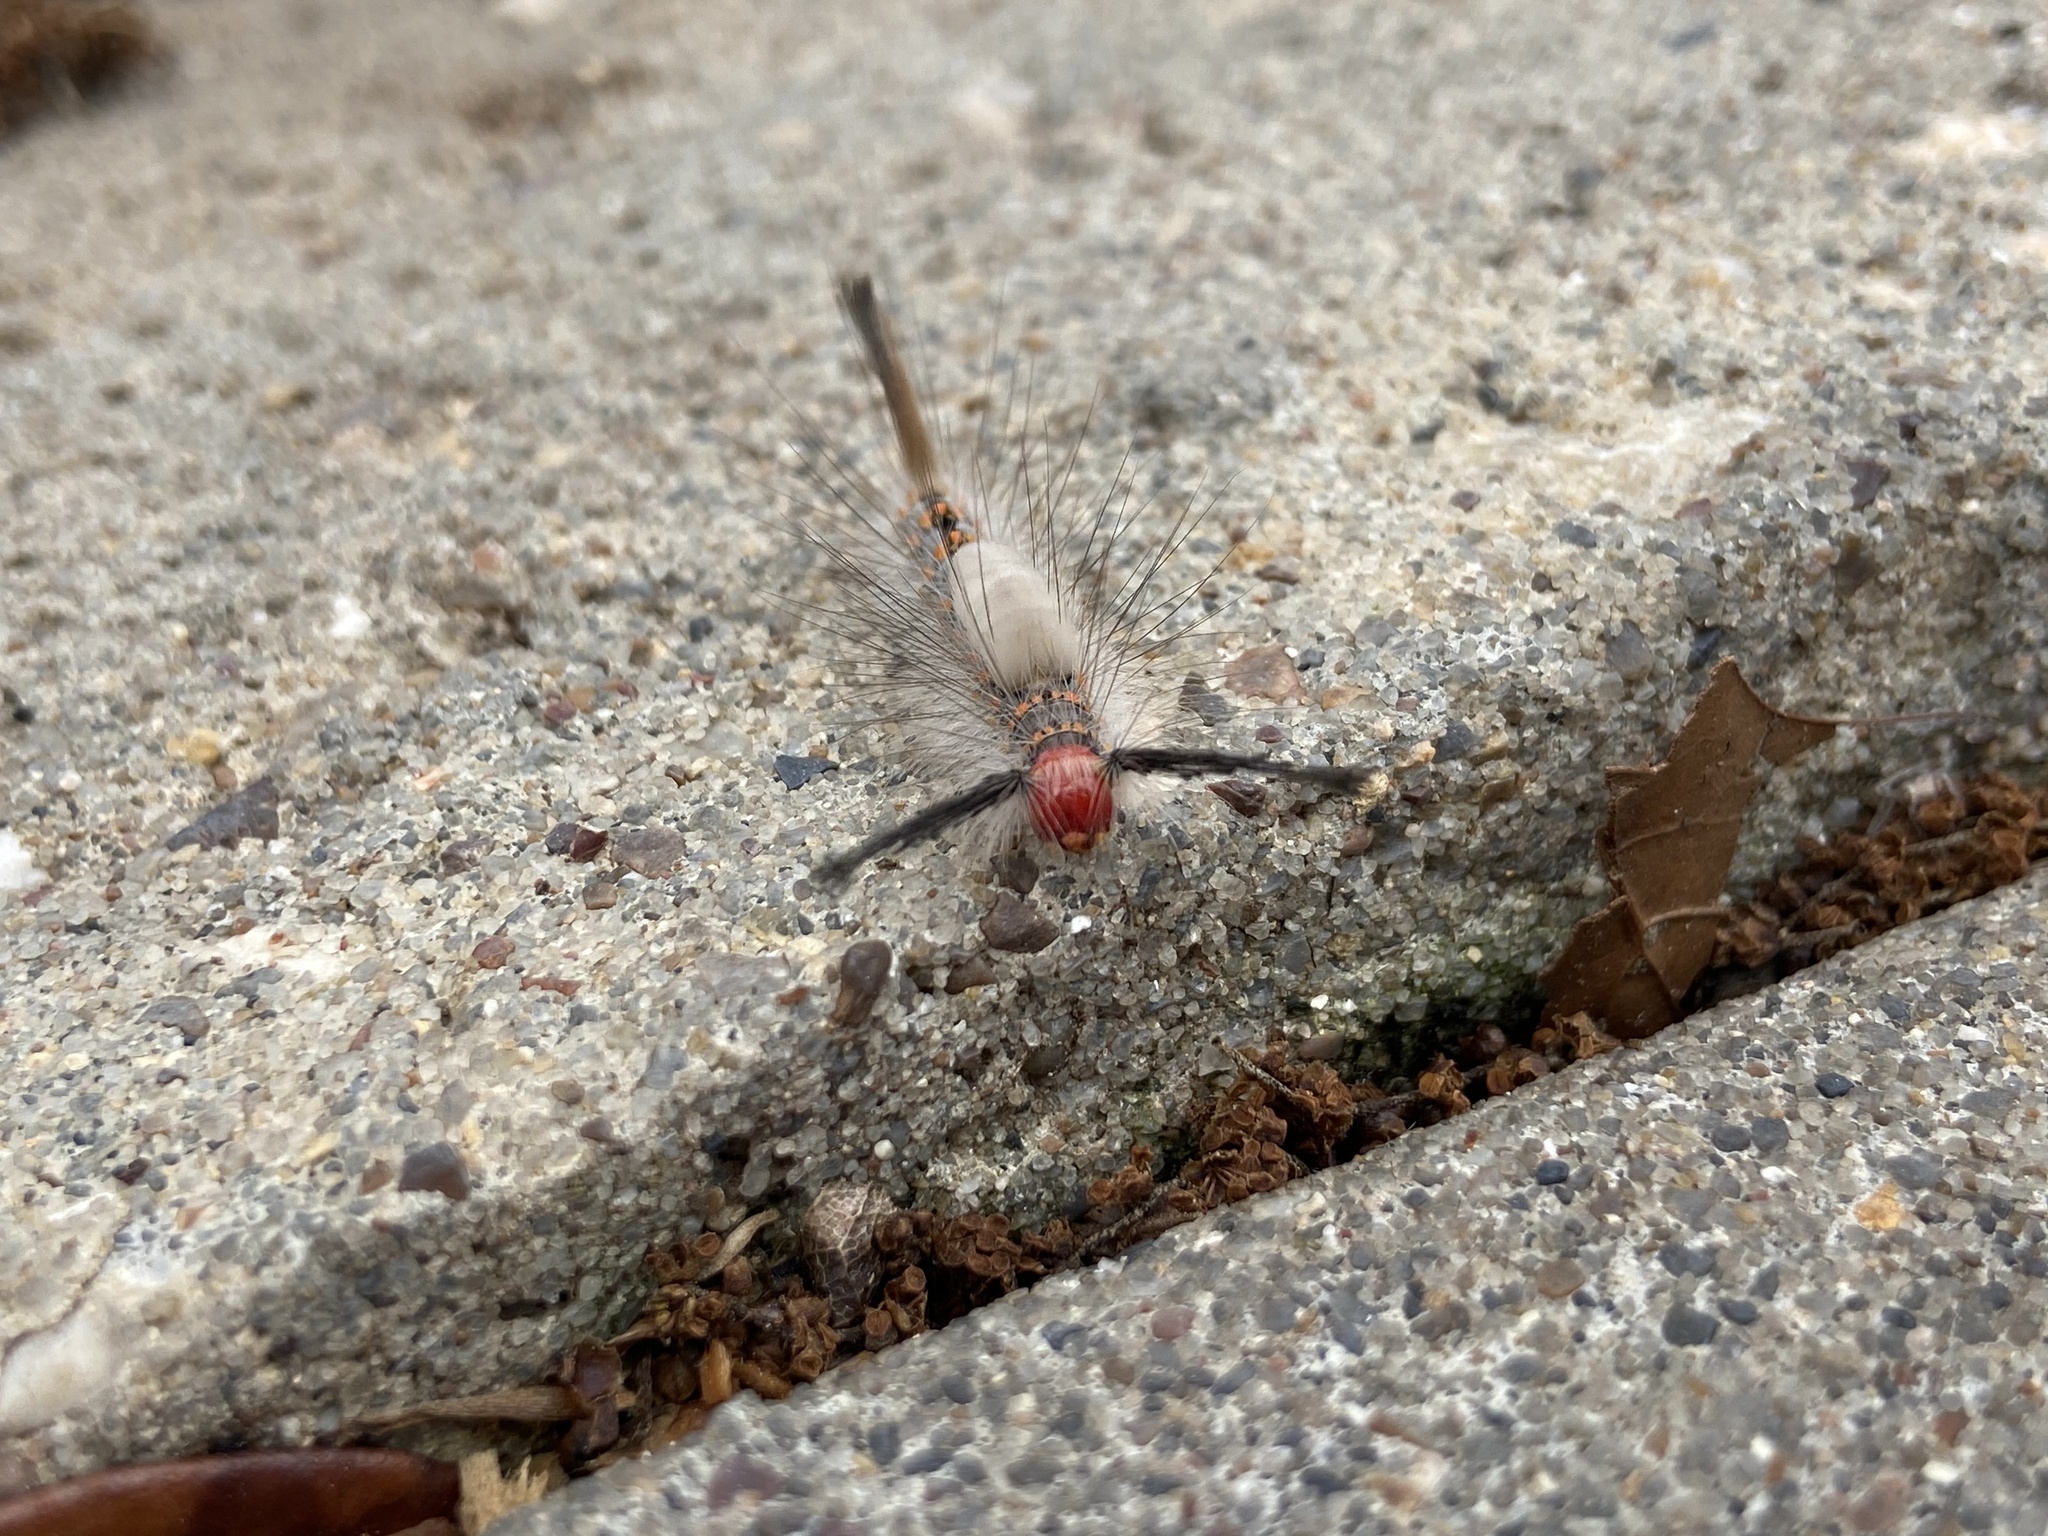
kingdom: Animalia
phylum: Arthropoda
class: Insecta
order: Lepidoptera
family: Erebidae
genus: Orgyia
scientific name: Orgyia detrita
